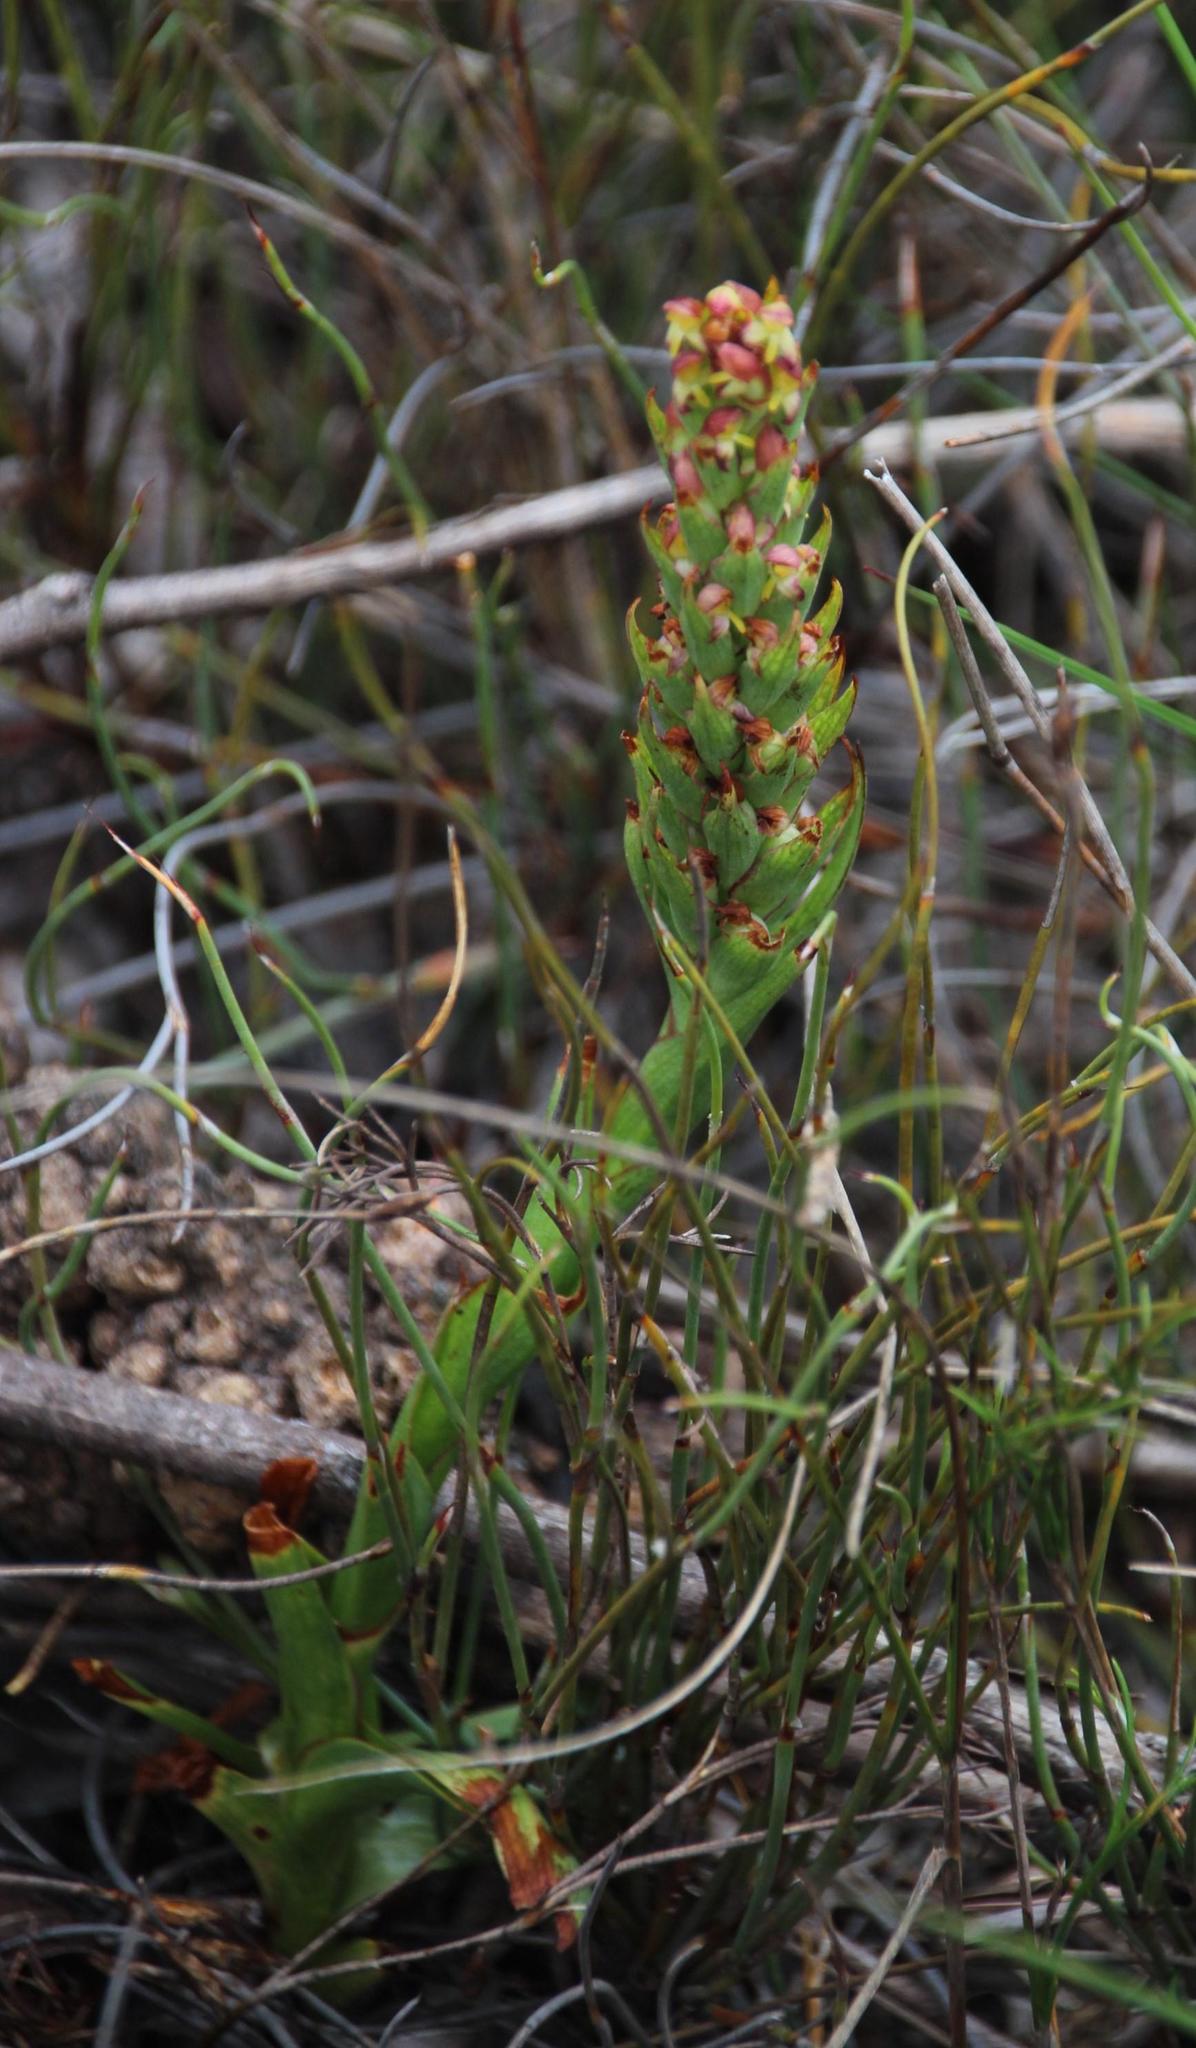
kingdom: Plantae
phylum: Tracheophyta
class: Liliopsida
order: Asparagales
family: Orchidaceae
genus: Disa
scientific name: Disa bracteata
